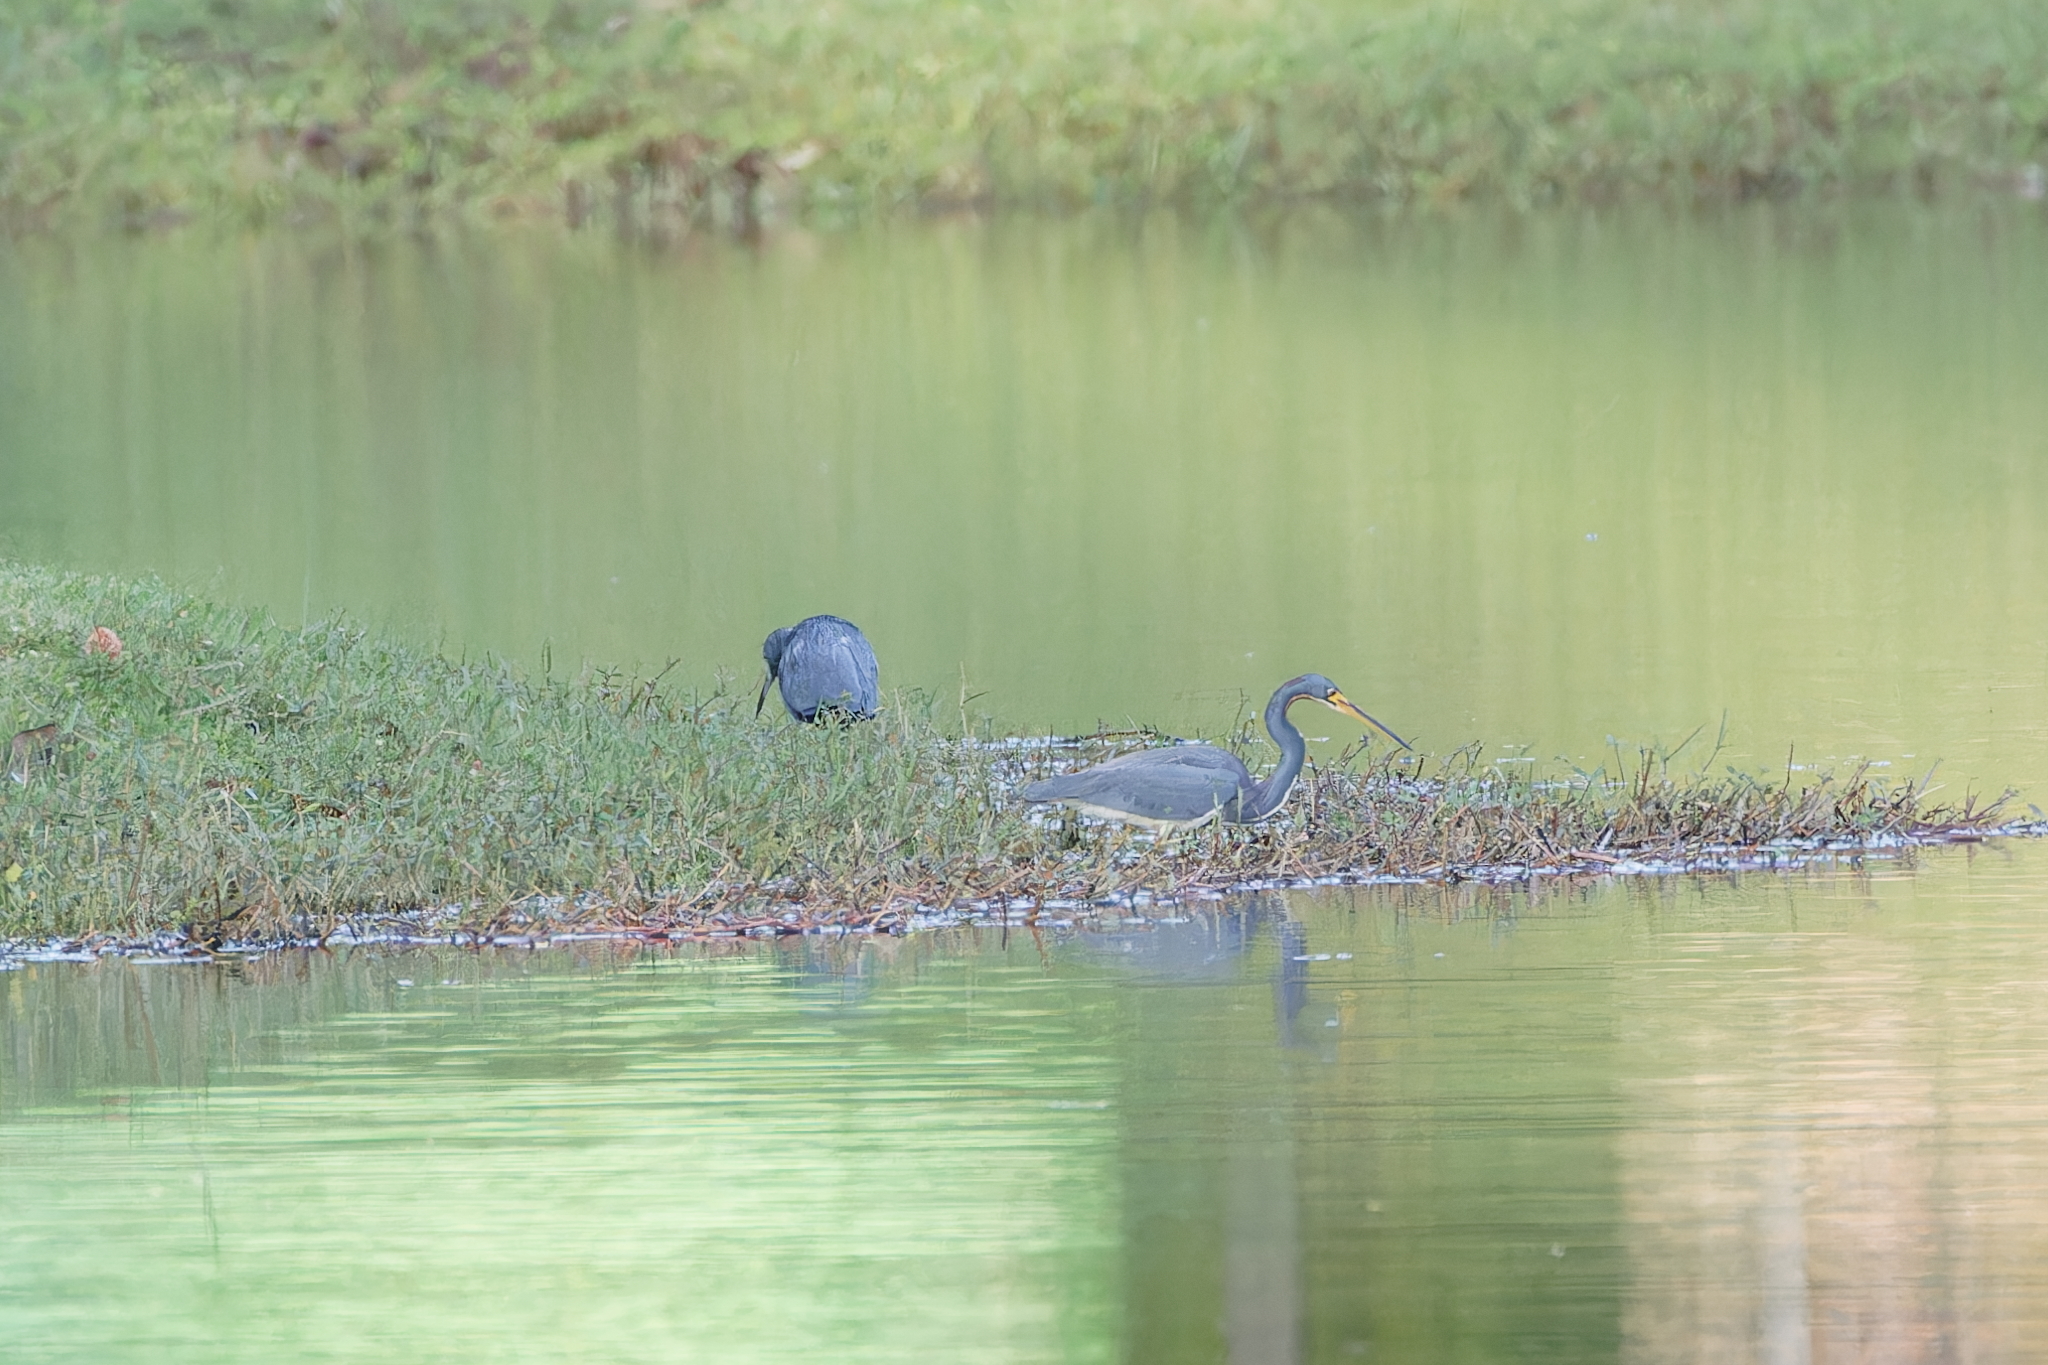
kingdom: Animalia
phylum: Chordata
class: Aves
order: Pelecaniformes
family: Ardeidae
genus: Egretta
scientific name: Egretta tricolor
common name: Tricolored heron
